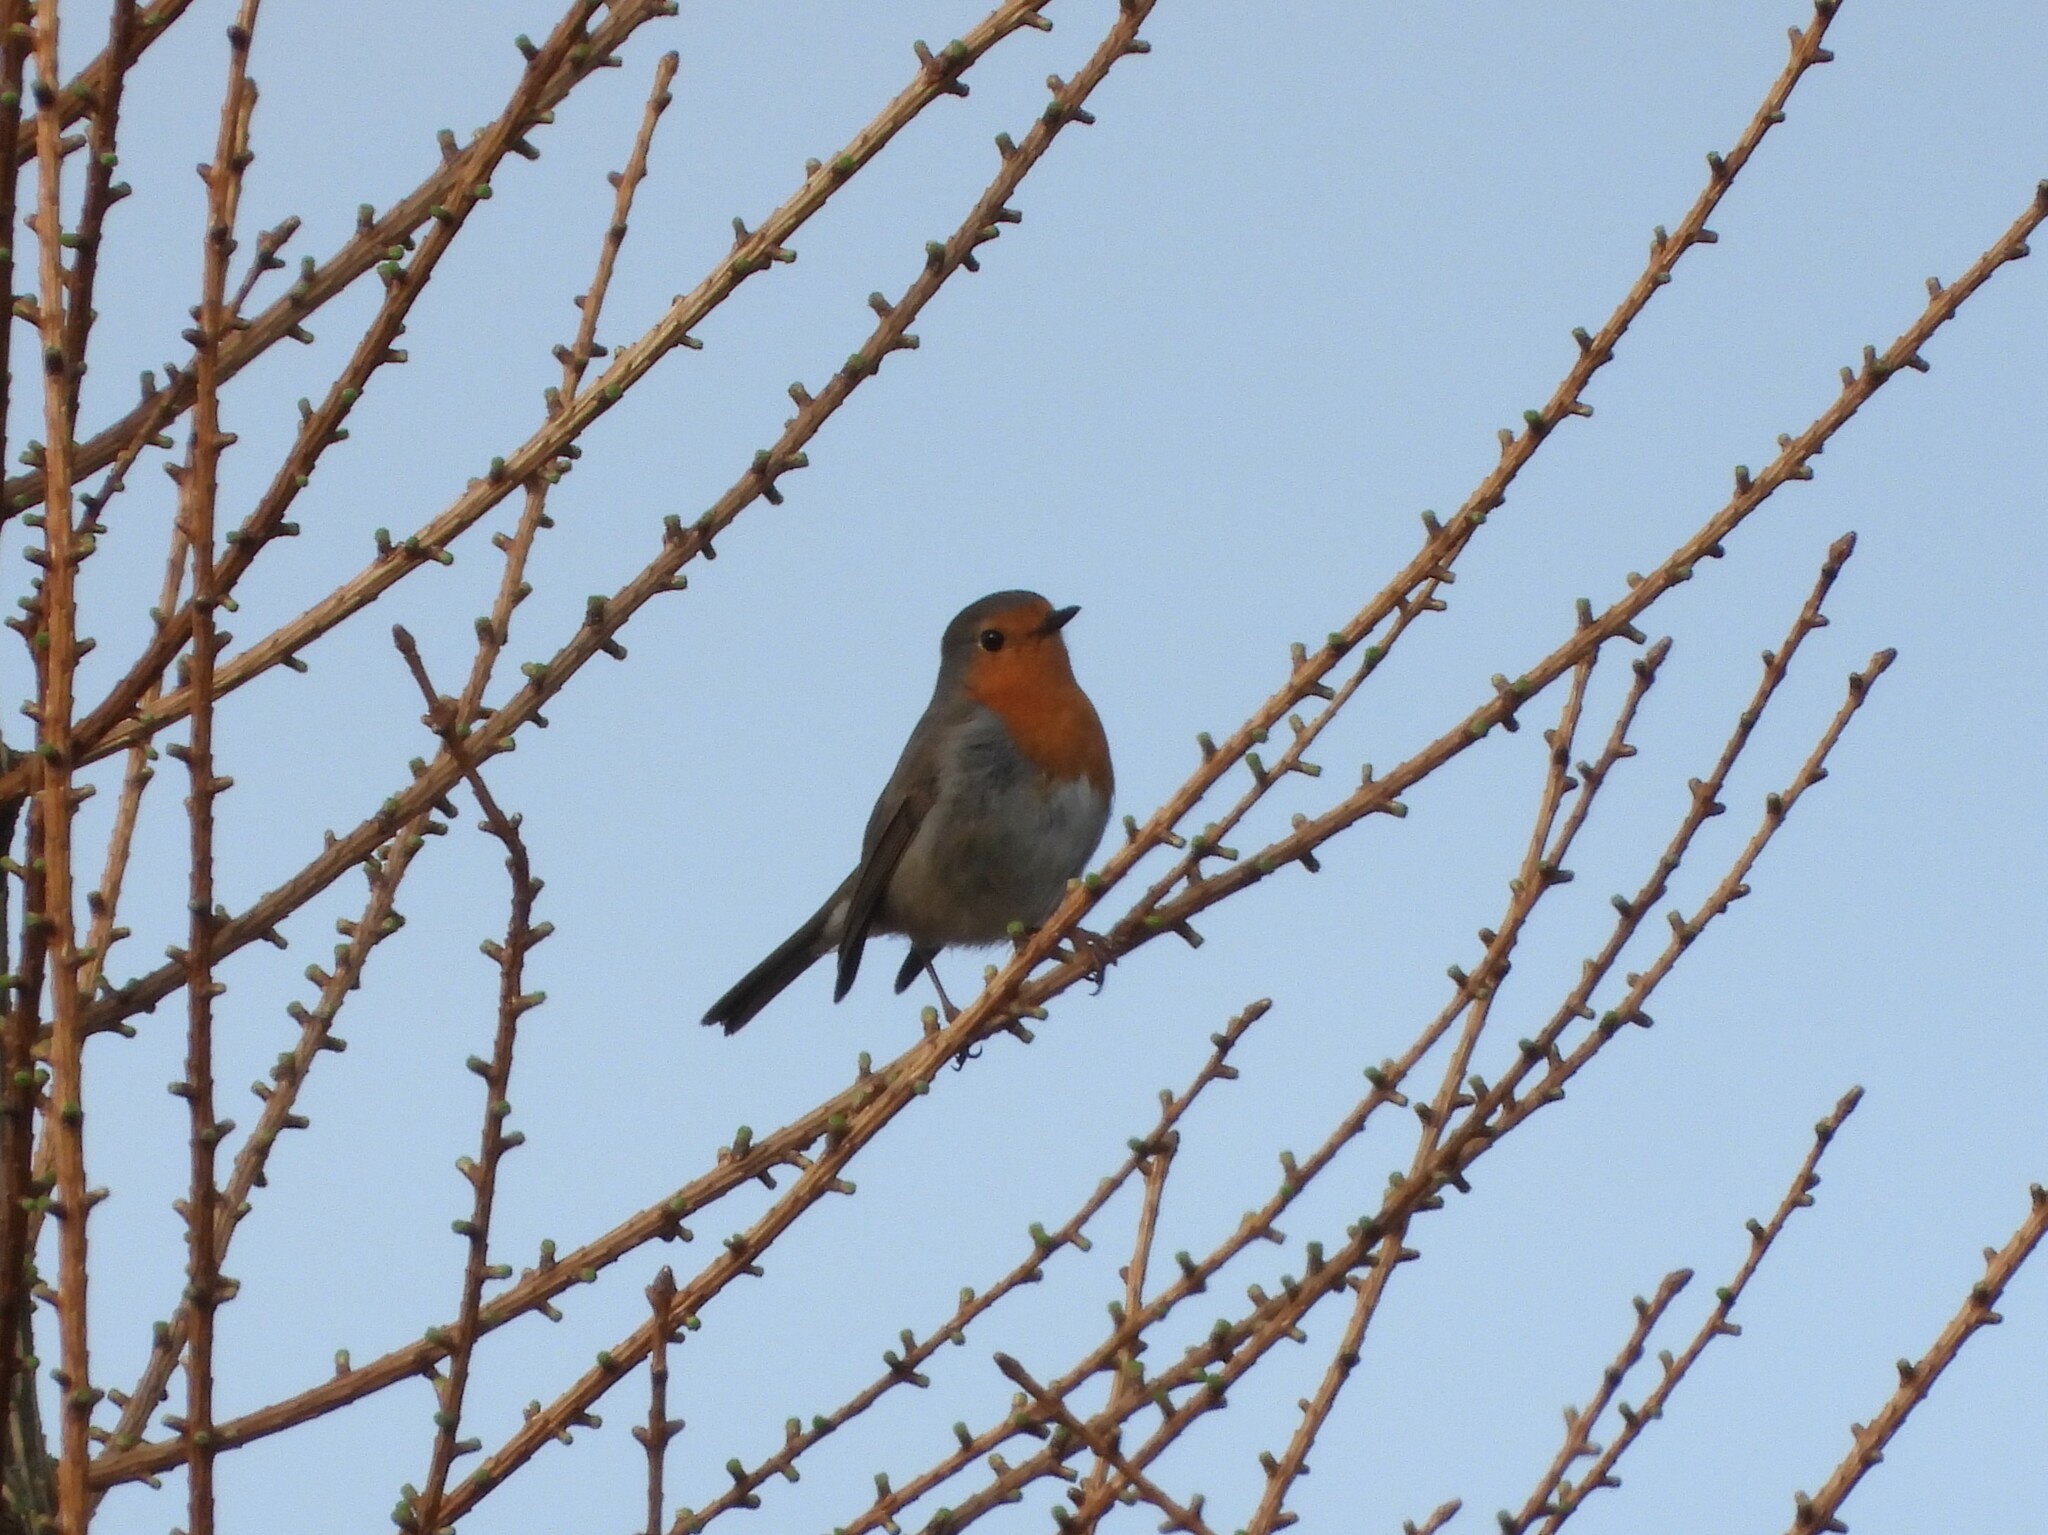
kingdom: Animalia
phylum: Chordata
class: Aves
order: Passeriformes
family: Muscicapidae
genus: Erithacus
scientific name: Erithacus rubecula
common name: European robin
